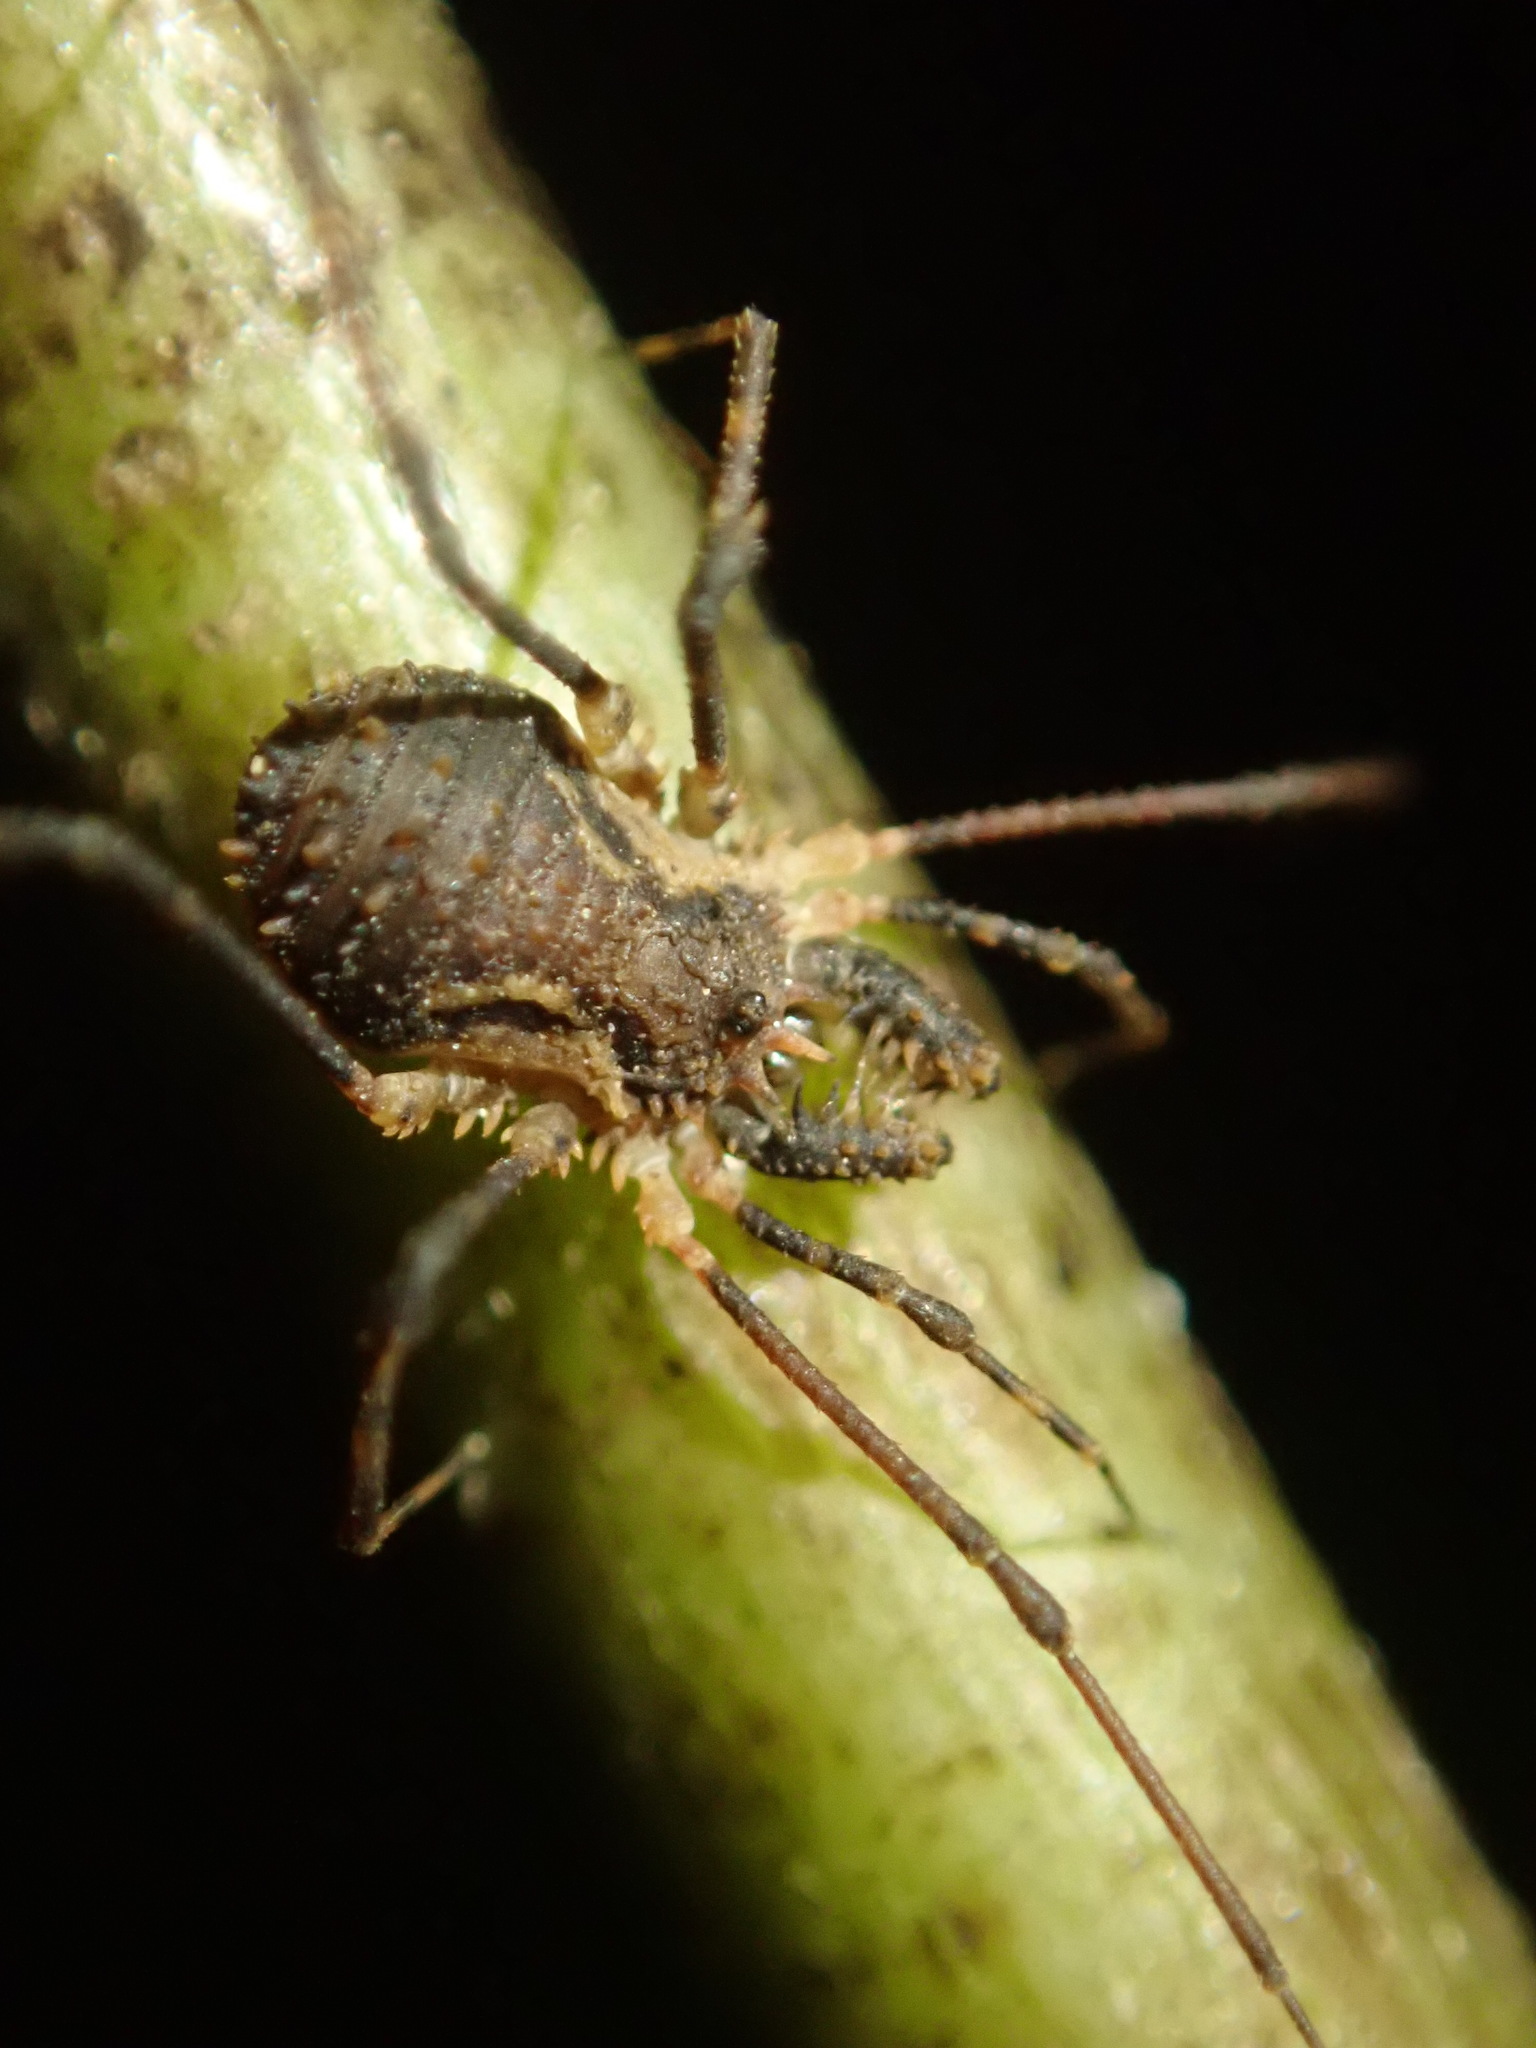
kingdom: Animalia
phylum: Arthropoda
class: Arachnida
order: Opiliones
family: Triaenonychidae
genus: Algidia
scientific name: Algidia chiltoni
